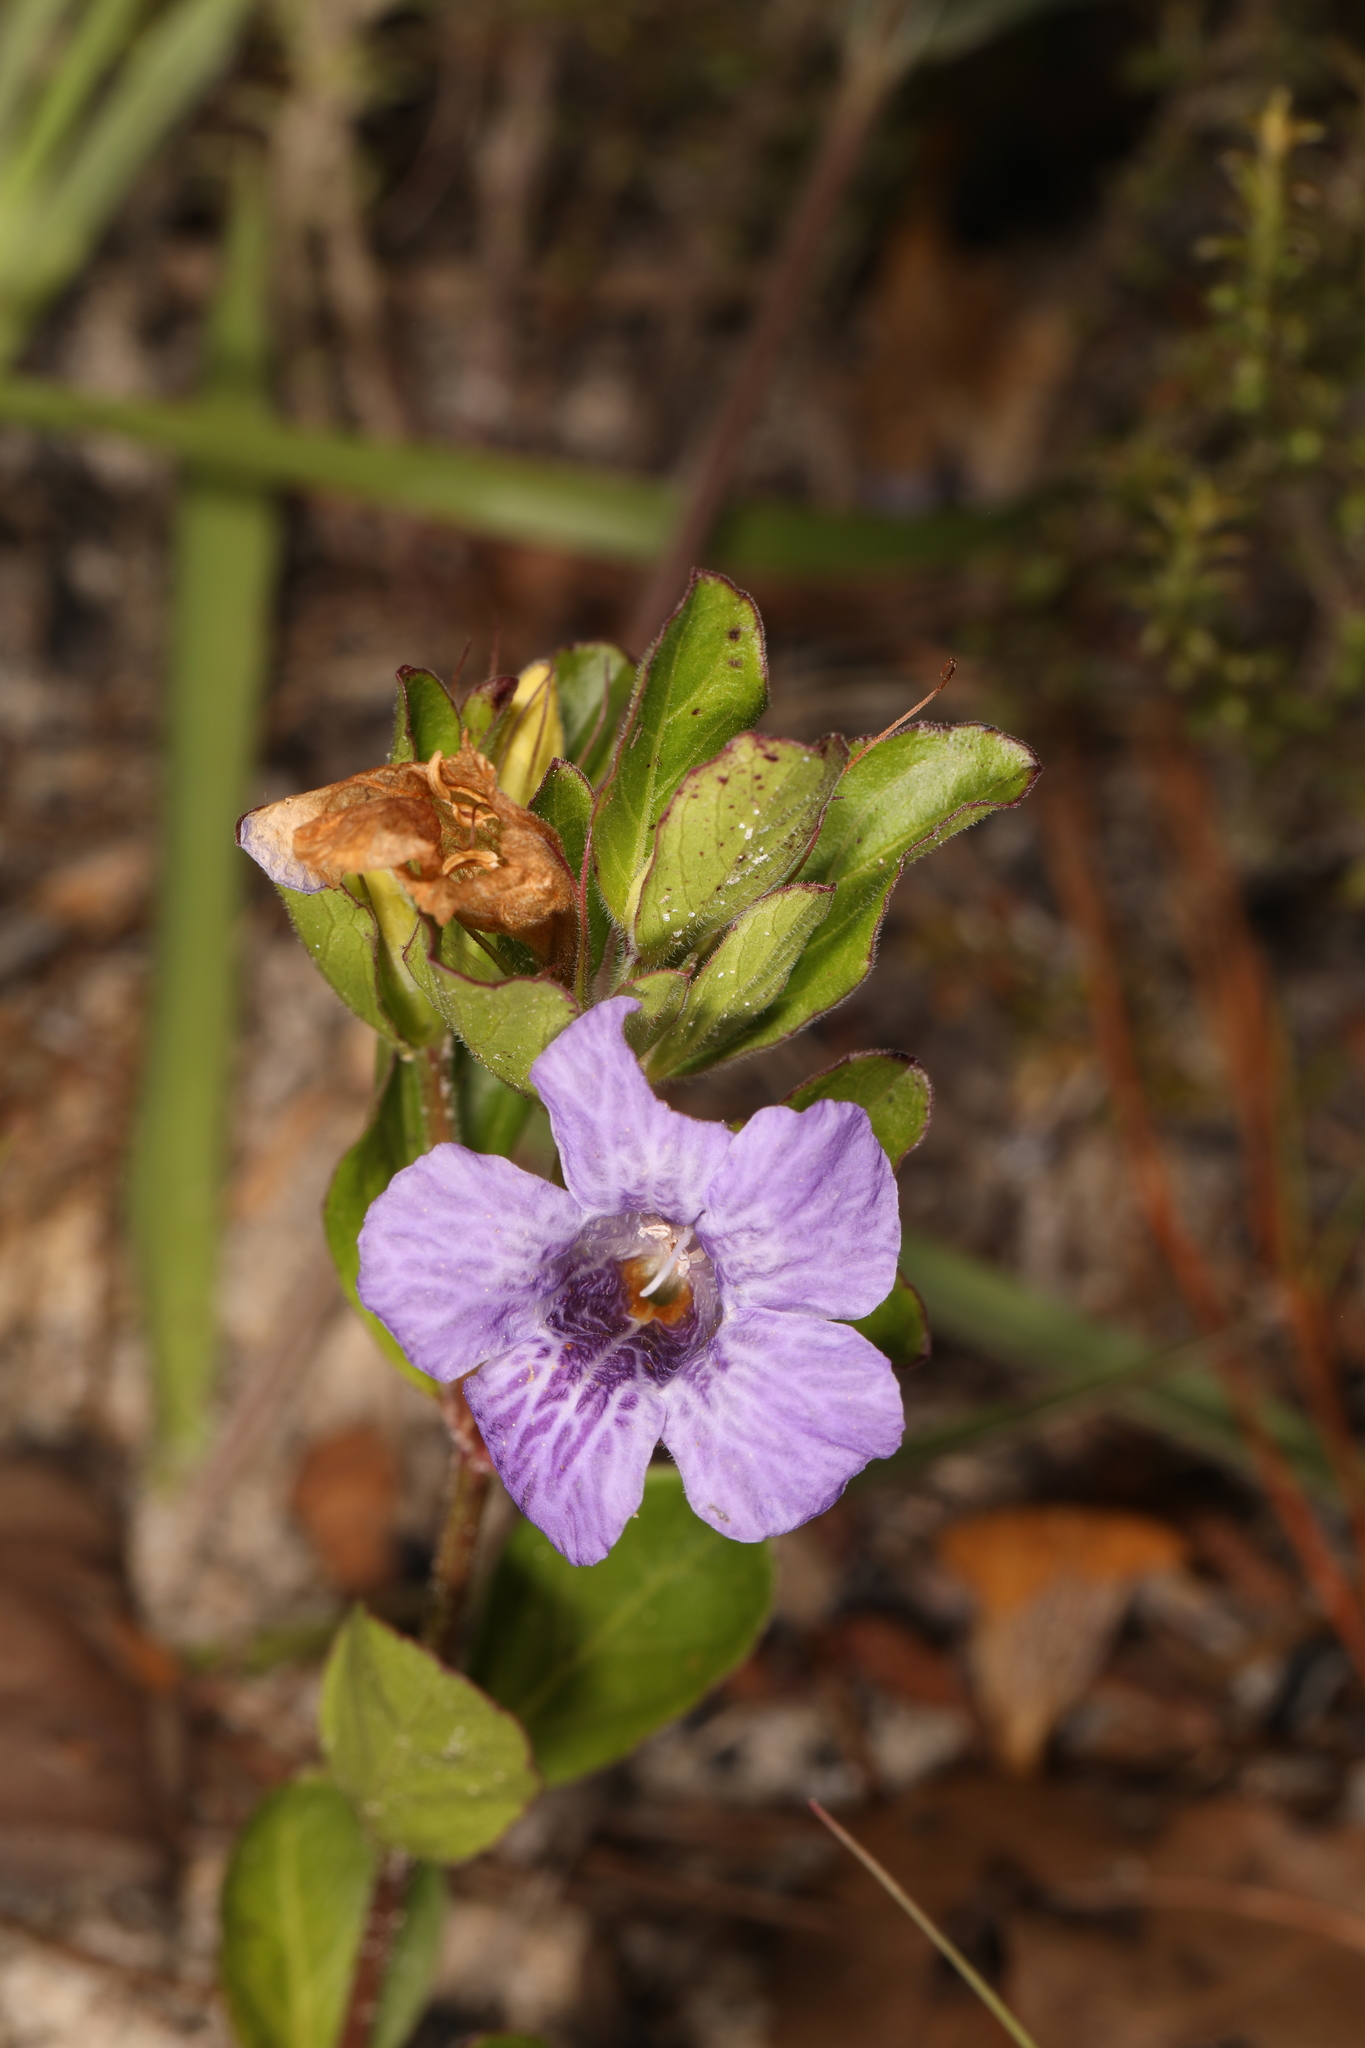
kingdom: Plantae
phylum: Tracheophyta
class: Magnoliopsida
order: Lamiales
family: Acanthaceae
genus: Dyschoriste
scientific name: Dyschoriste oblongifolia
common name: Blue twinflower
